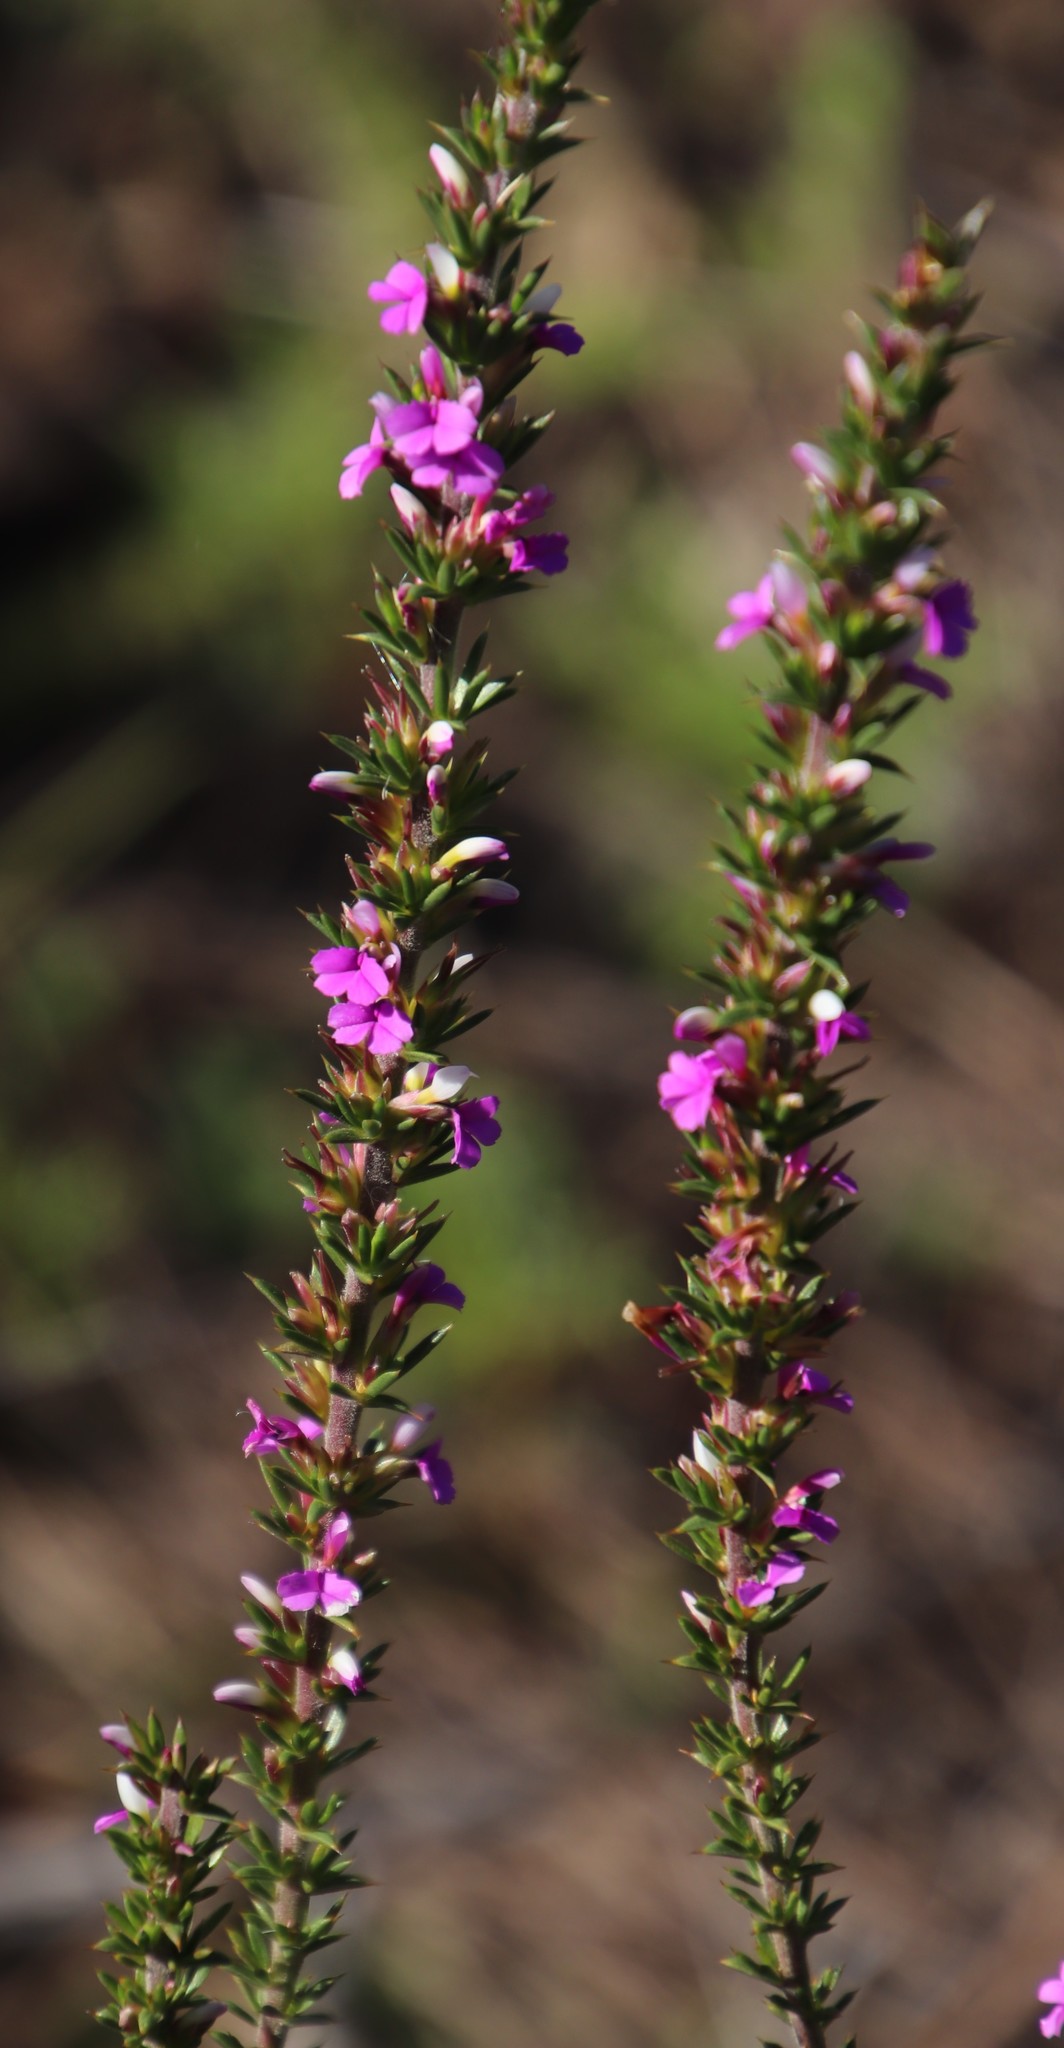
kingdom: Plantae
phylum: Tracheophyta
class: Magnoliopsida
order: Fabales
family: Polygalaceae
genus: Muraltia
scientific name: Muraltia heisteria
